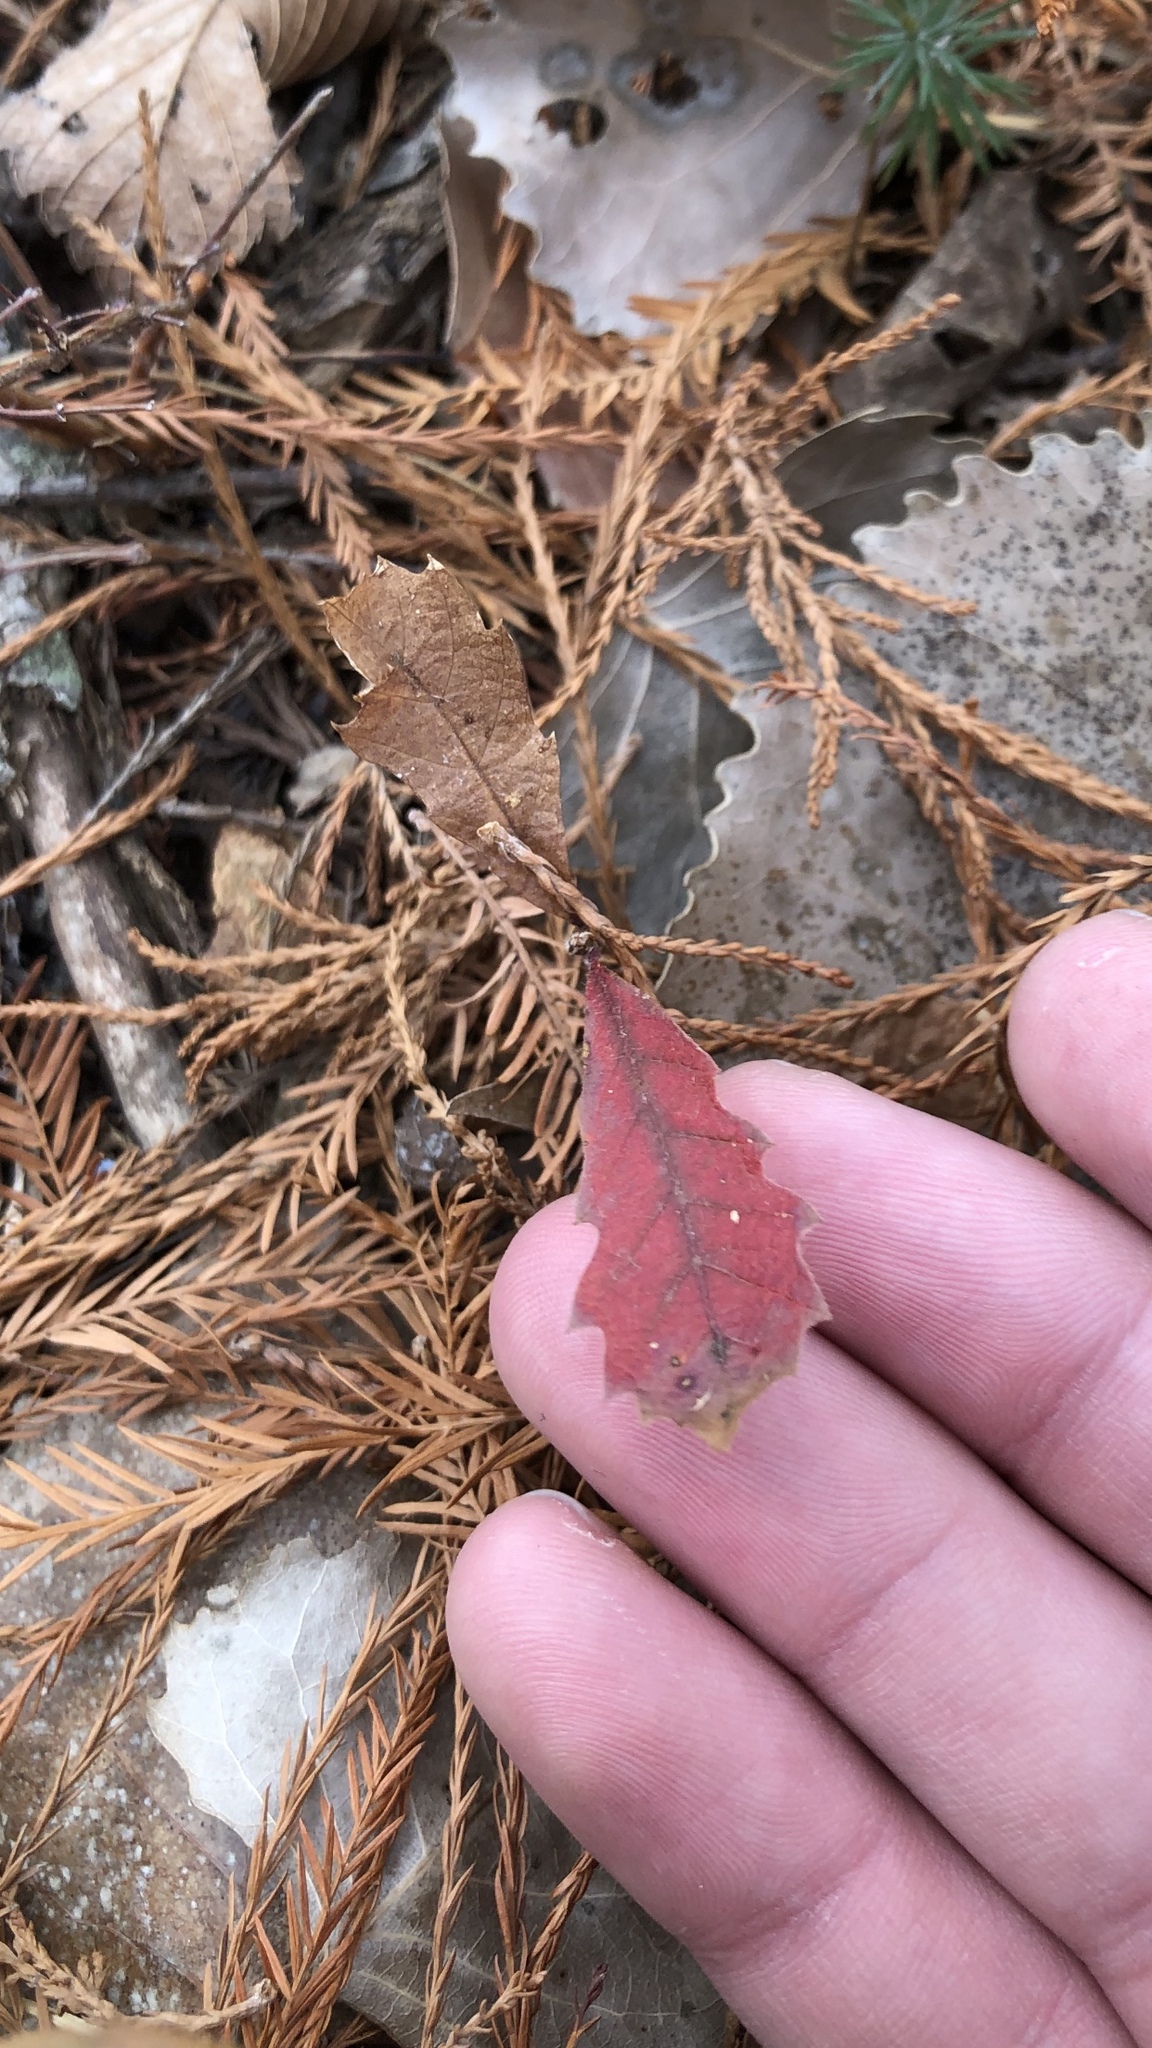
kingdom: Plantae
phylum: Tracheophyta
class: Magnoliopsida
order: Fagales
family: Fagaceae
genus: Quercus
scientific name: Quercus muehlenbergii
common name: Chinkapin oak
